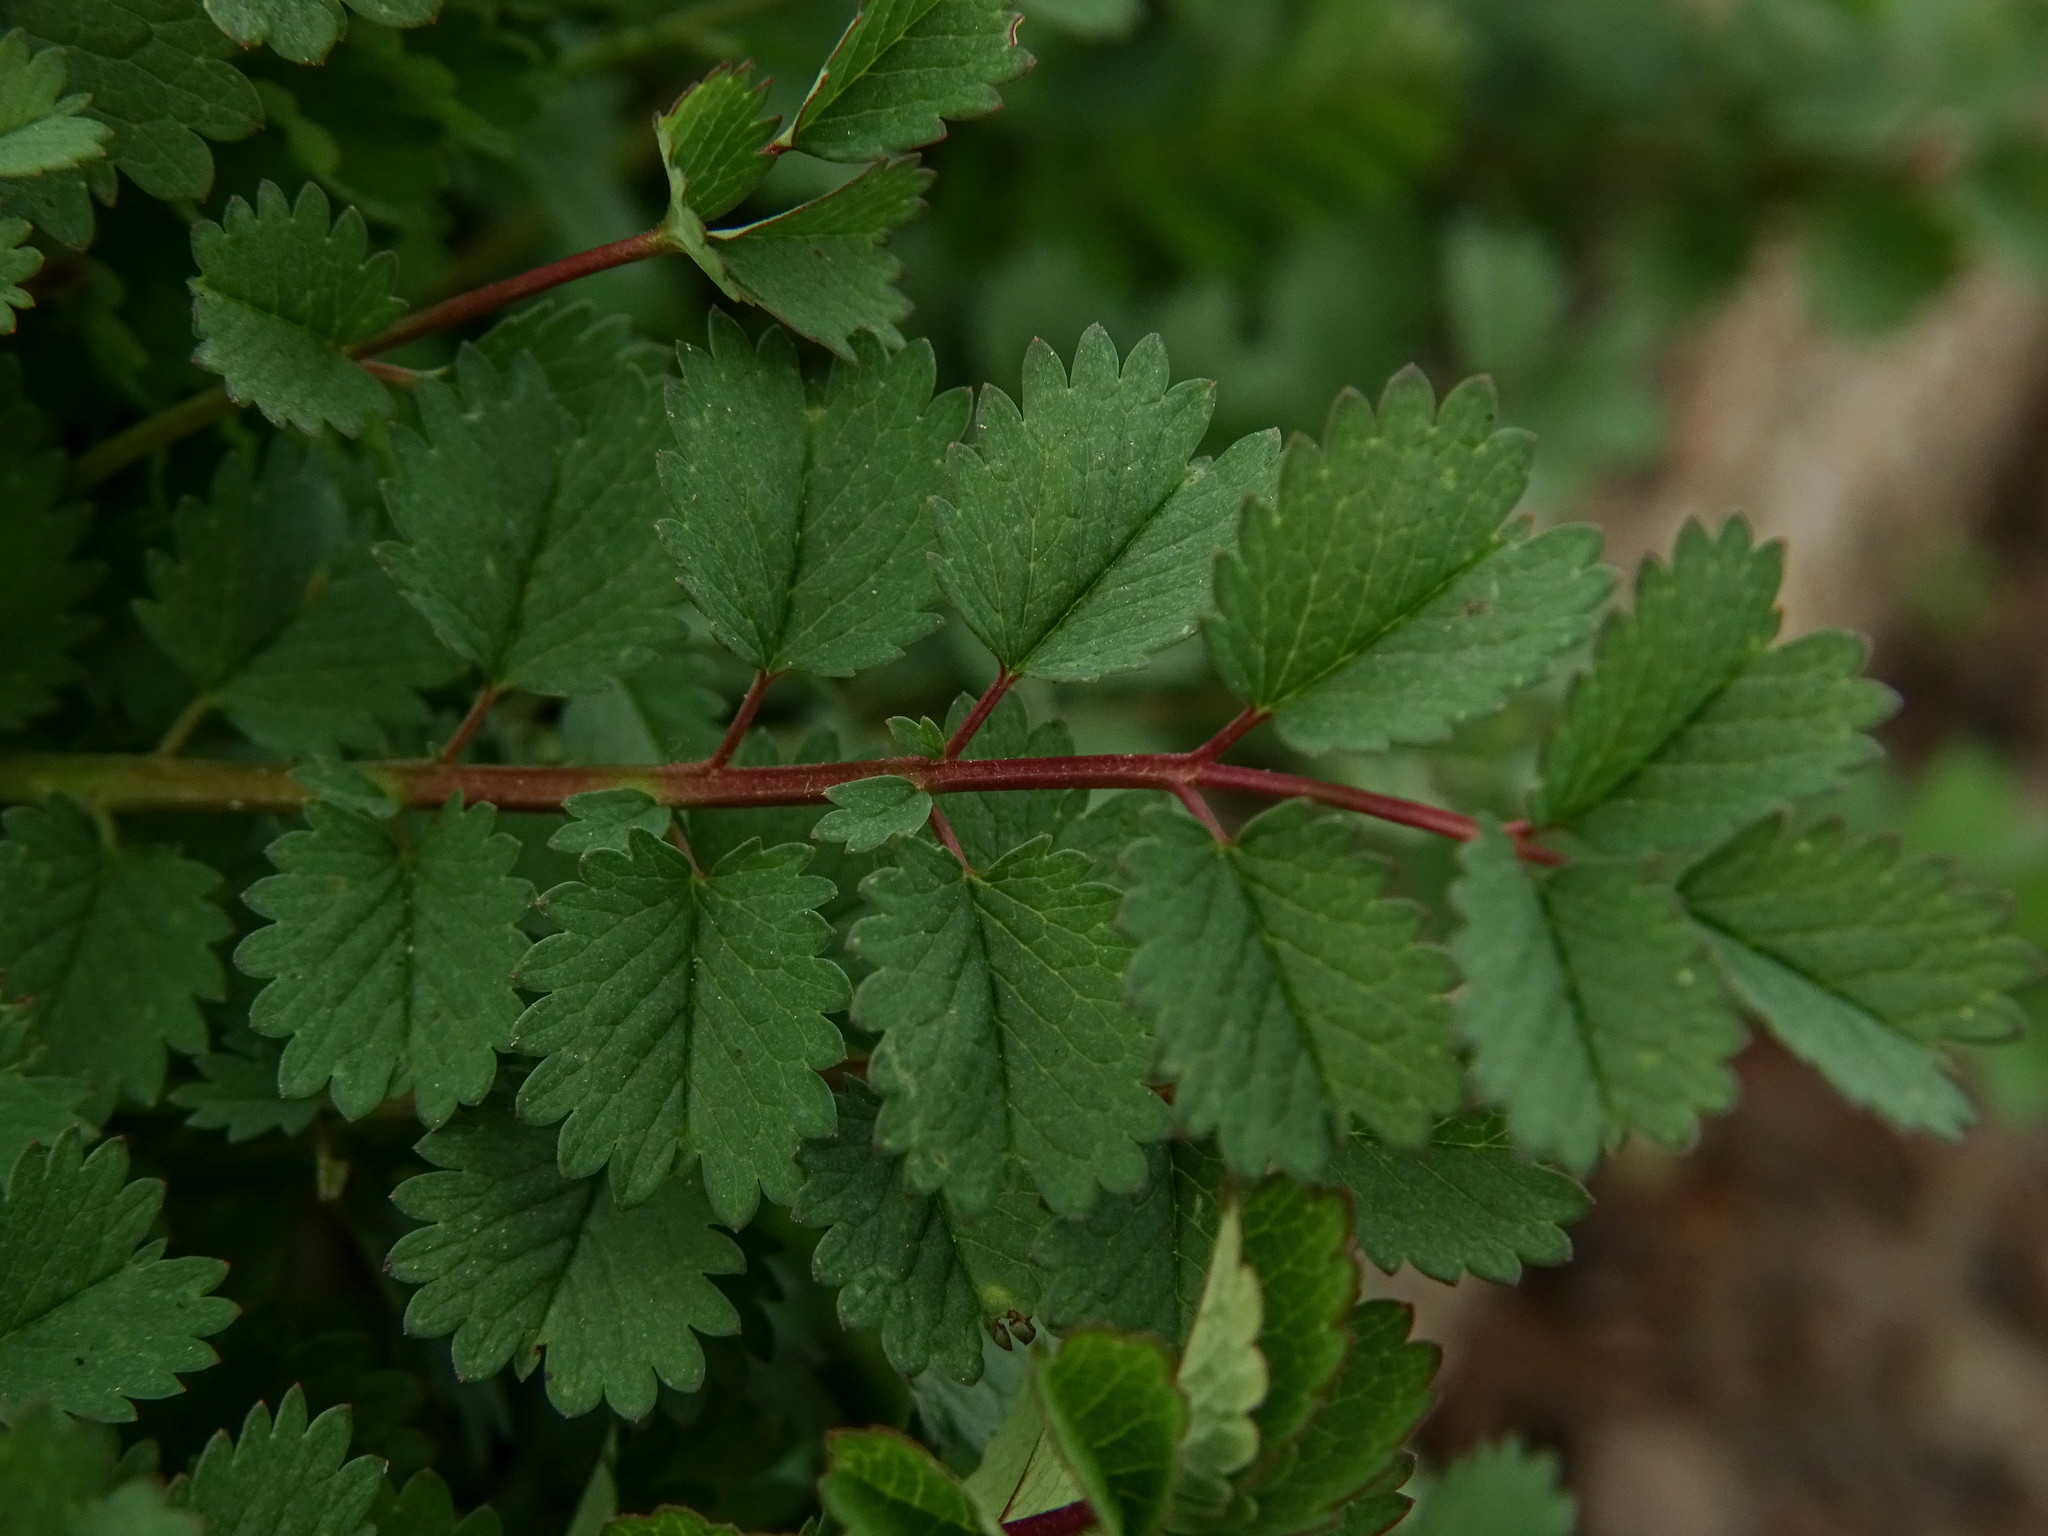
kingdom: Plantae
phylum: Tracheophyta
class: Magnoliopsida
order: Rosales
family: Rosaceae
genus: Poterium
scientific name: Poterium sanguisorba
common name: Salad burnet
